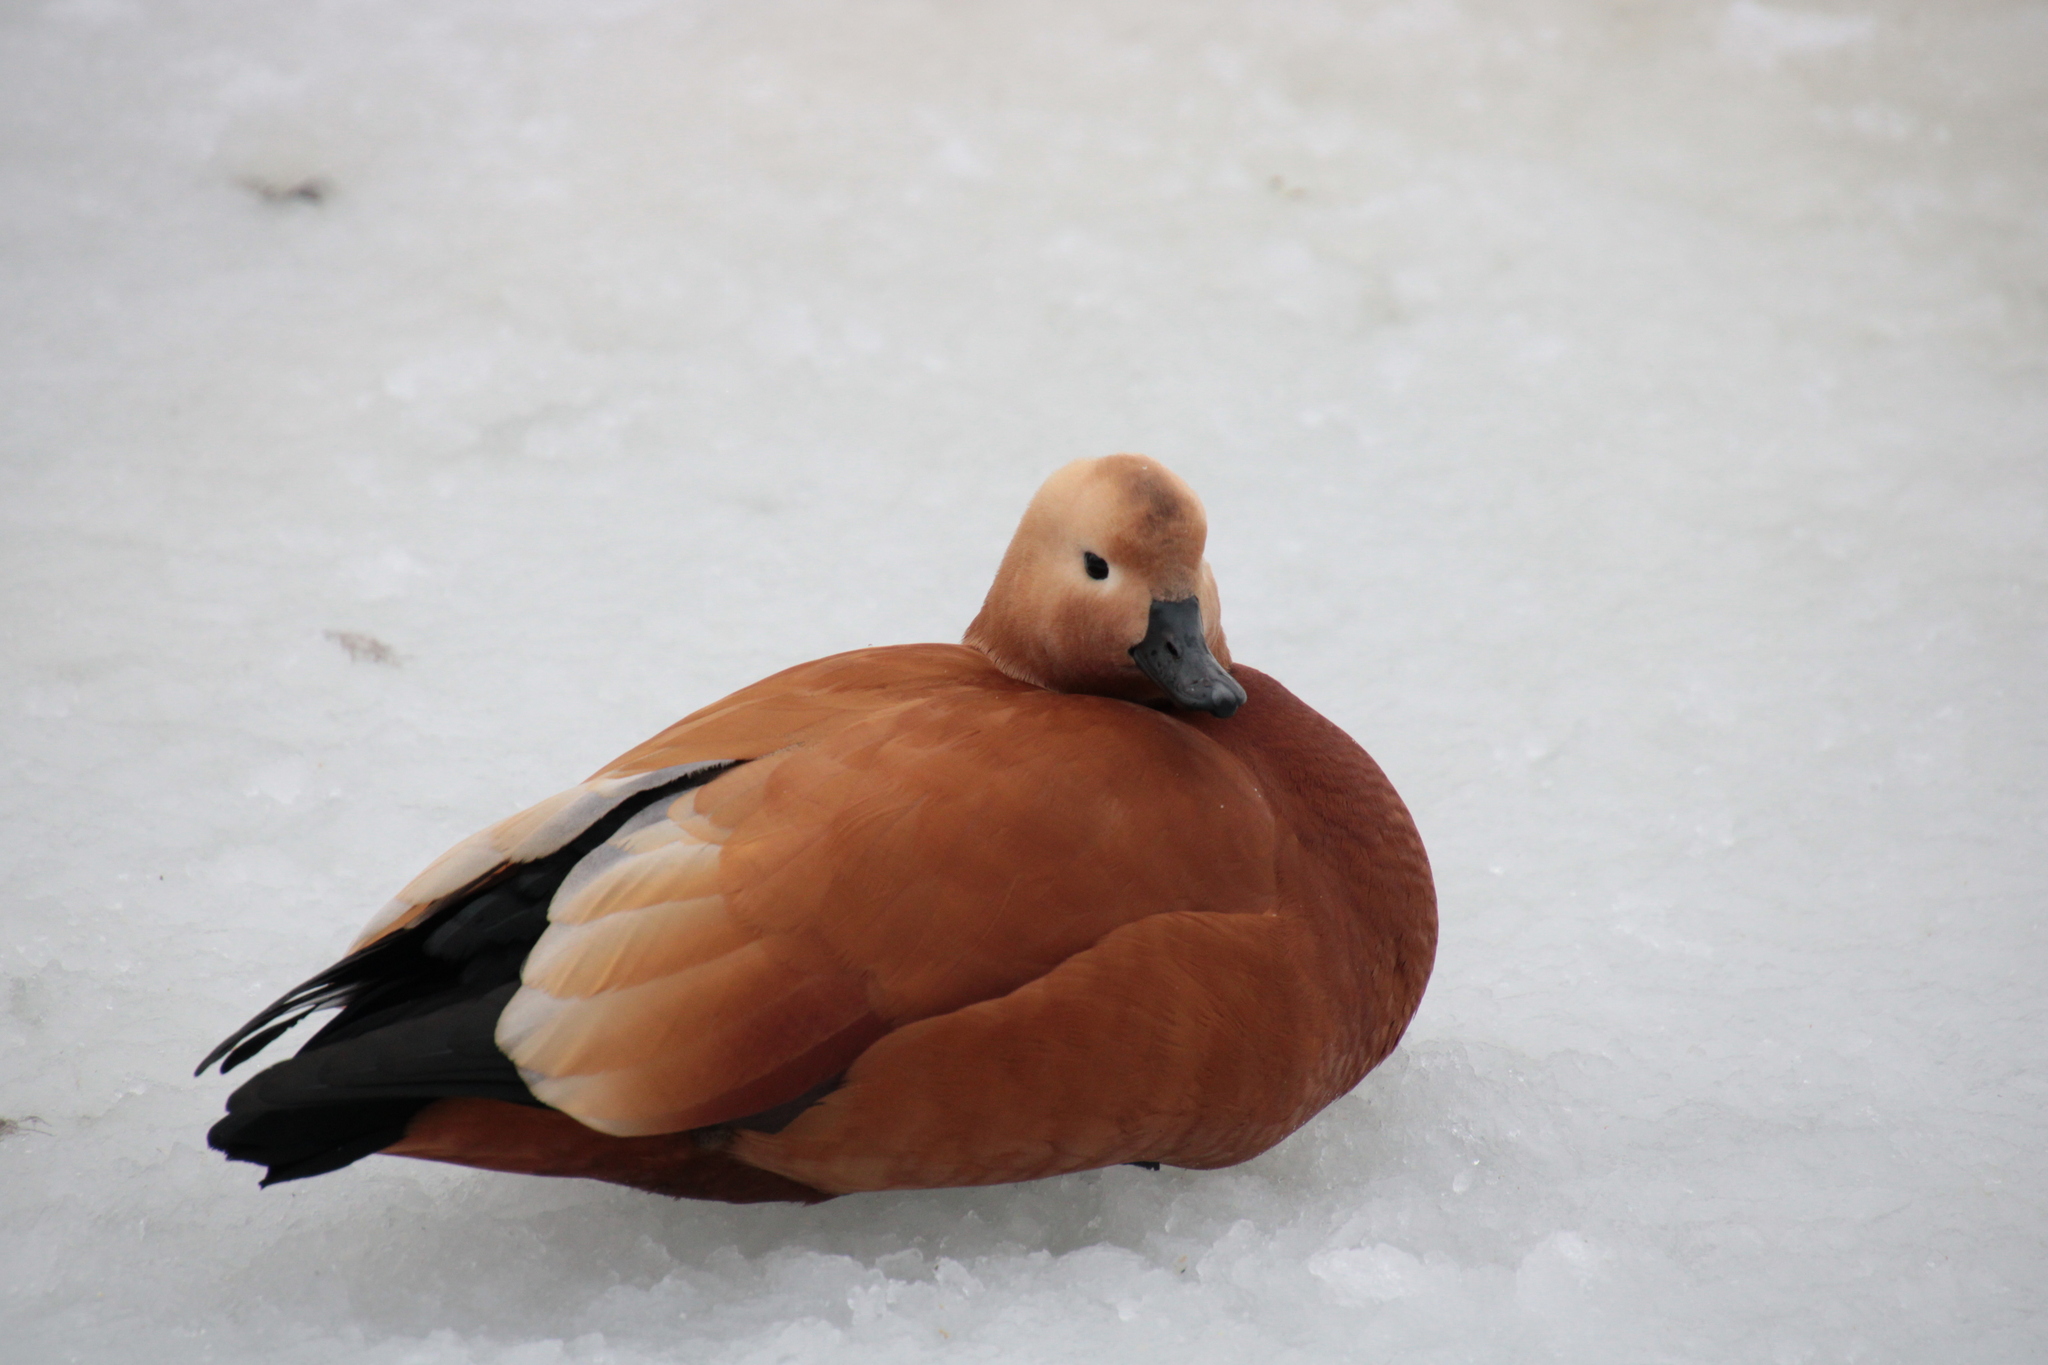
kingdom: Animalia
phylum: Chordata
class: Aves
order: Anseriformes
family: Anatidae
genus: Tadorna
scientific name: Tadorna ferruginea
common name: Ruddy shelduck
